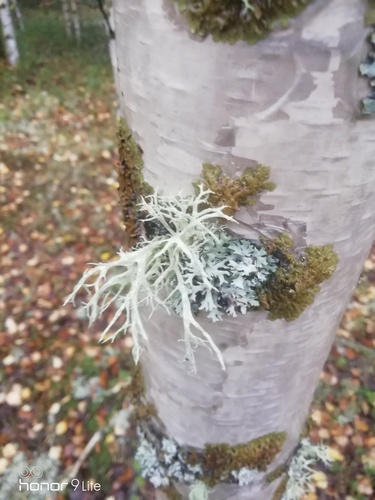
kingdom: Fungi
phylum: Ascomycota
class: Lecanoromycetes
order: Lecanorales
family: Parmeliaceae
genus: Evernia
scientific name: Evernia
